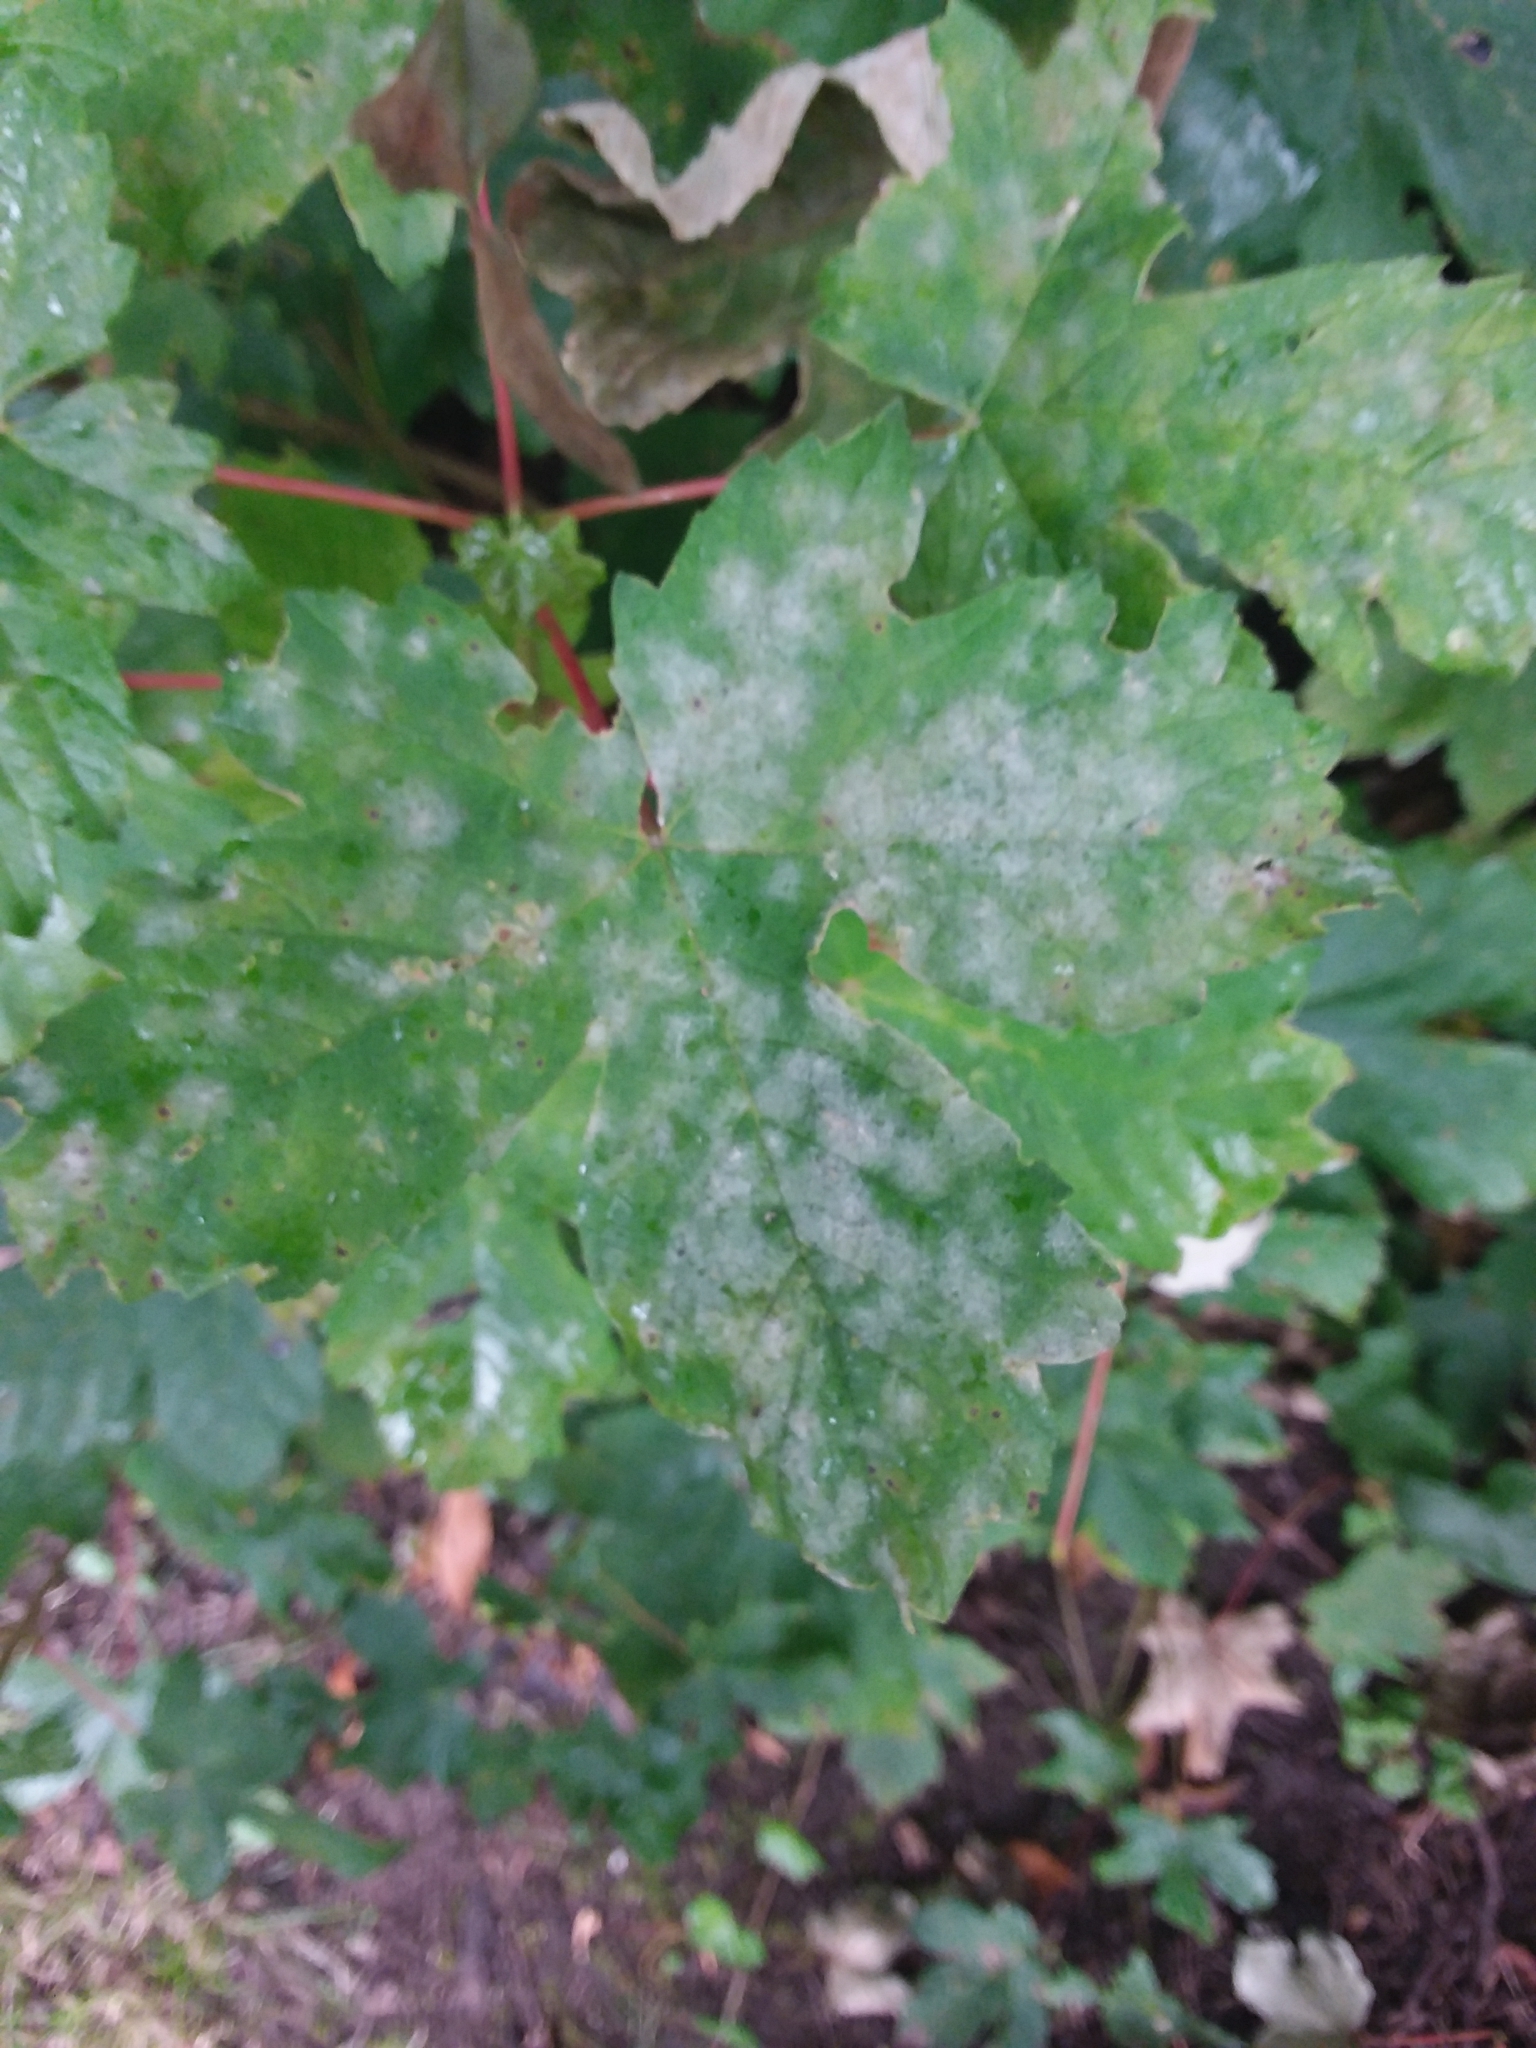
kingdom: Fungi
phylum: Ascomycota
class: Leotiomycetes
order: Helotiales
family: Erysiphaceae
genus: Sawadaea
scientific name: Sawadaea bicornis
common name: Maple mildew
